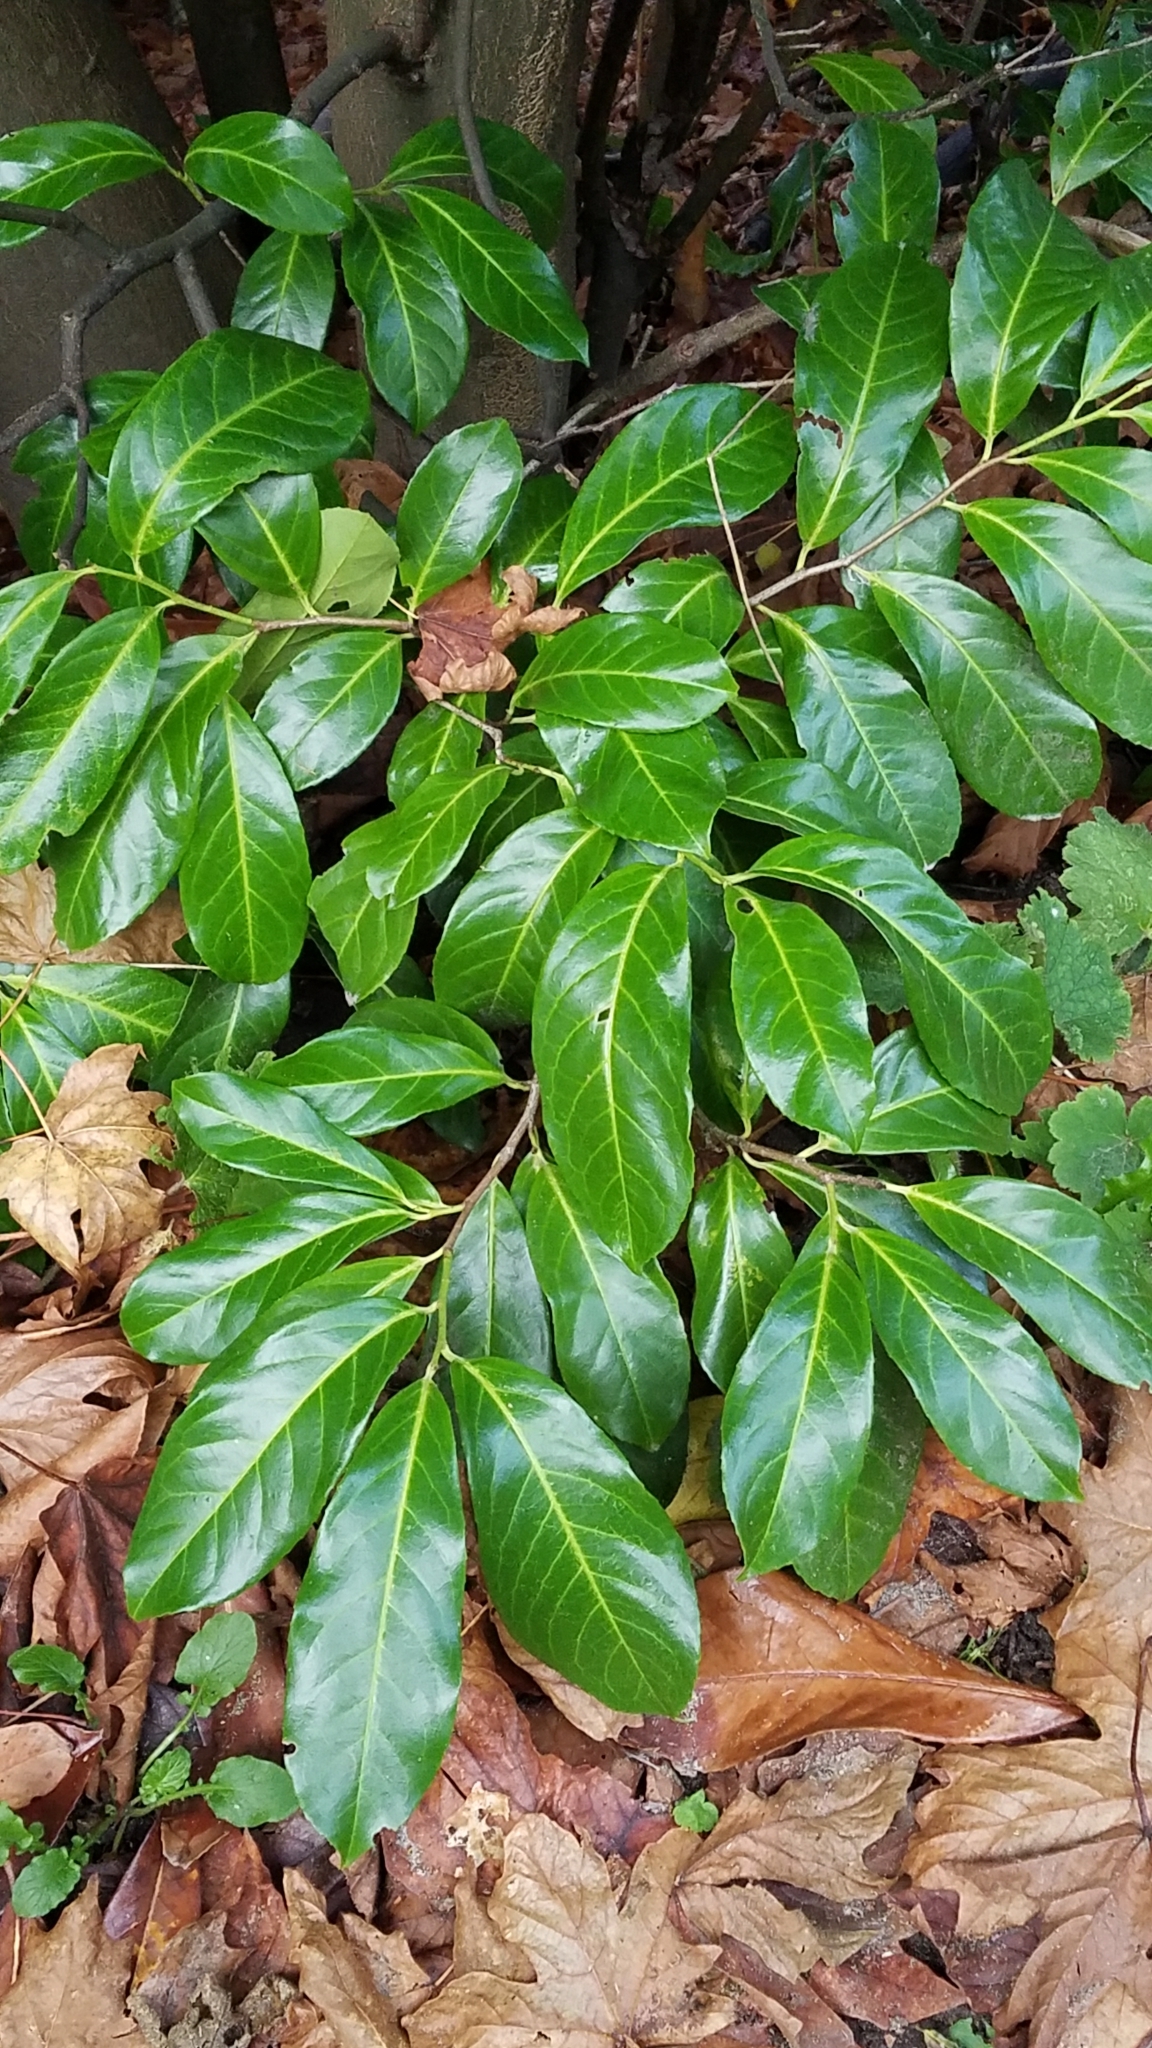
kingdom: Plantae
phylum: Tracheophyta
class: Magnoliopsida
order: Rosales
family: Rosaceae
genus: Prunus
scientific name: Prunus laurocerasus
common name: Cherry laurel
